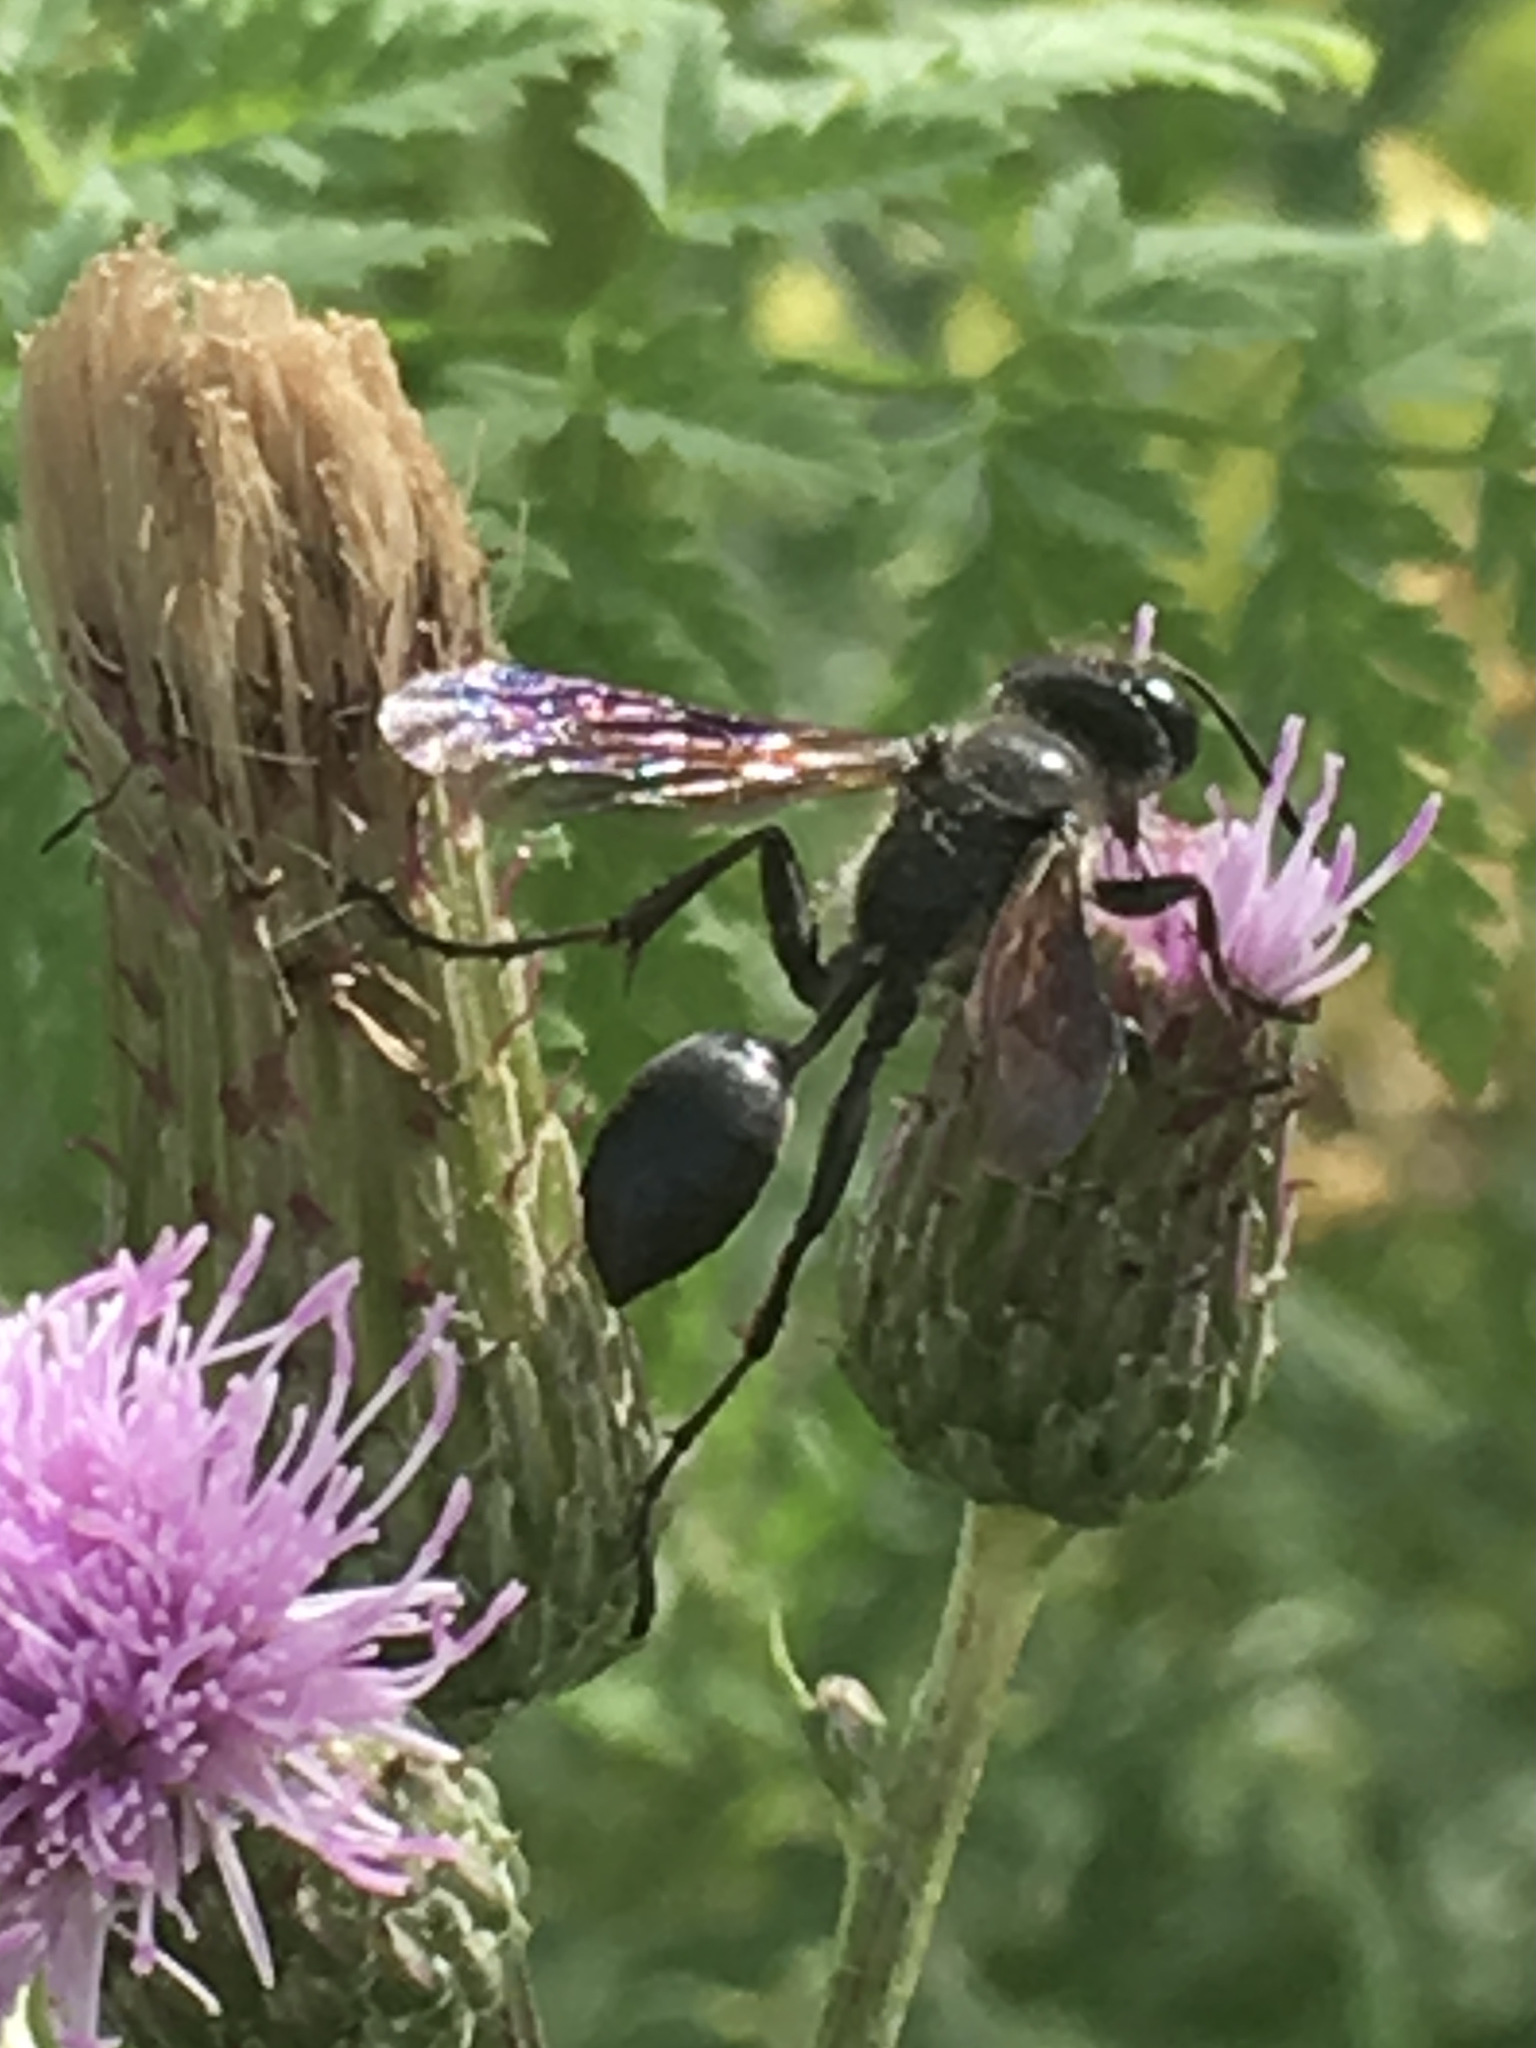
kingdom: Animalia
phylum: Arthropoda
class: Insecta
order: Hymenoptera
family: Sphecidae
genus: Isodontia
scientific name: Isodontia mexicana
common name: Mud dauber
